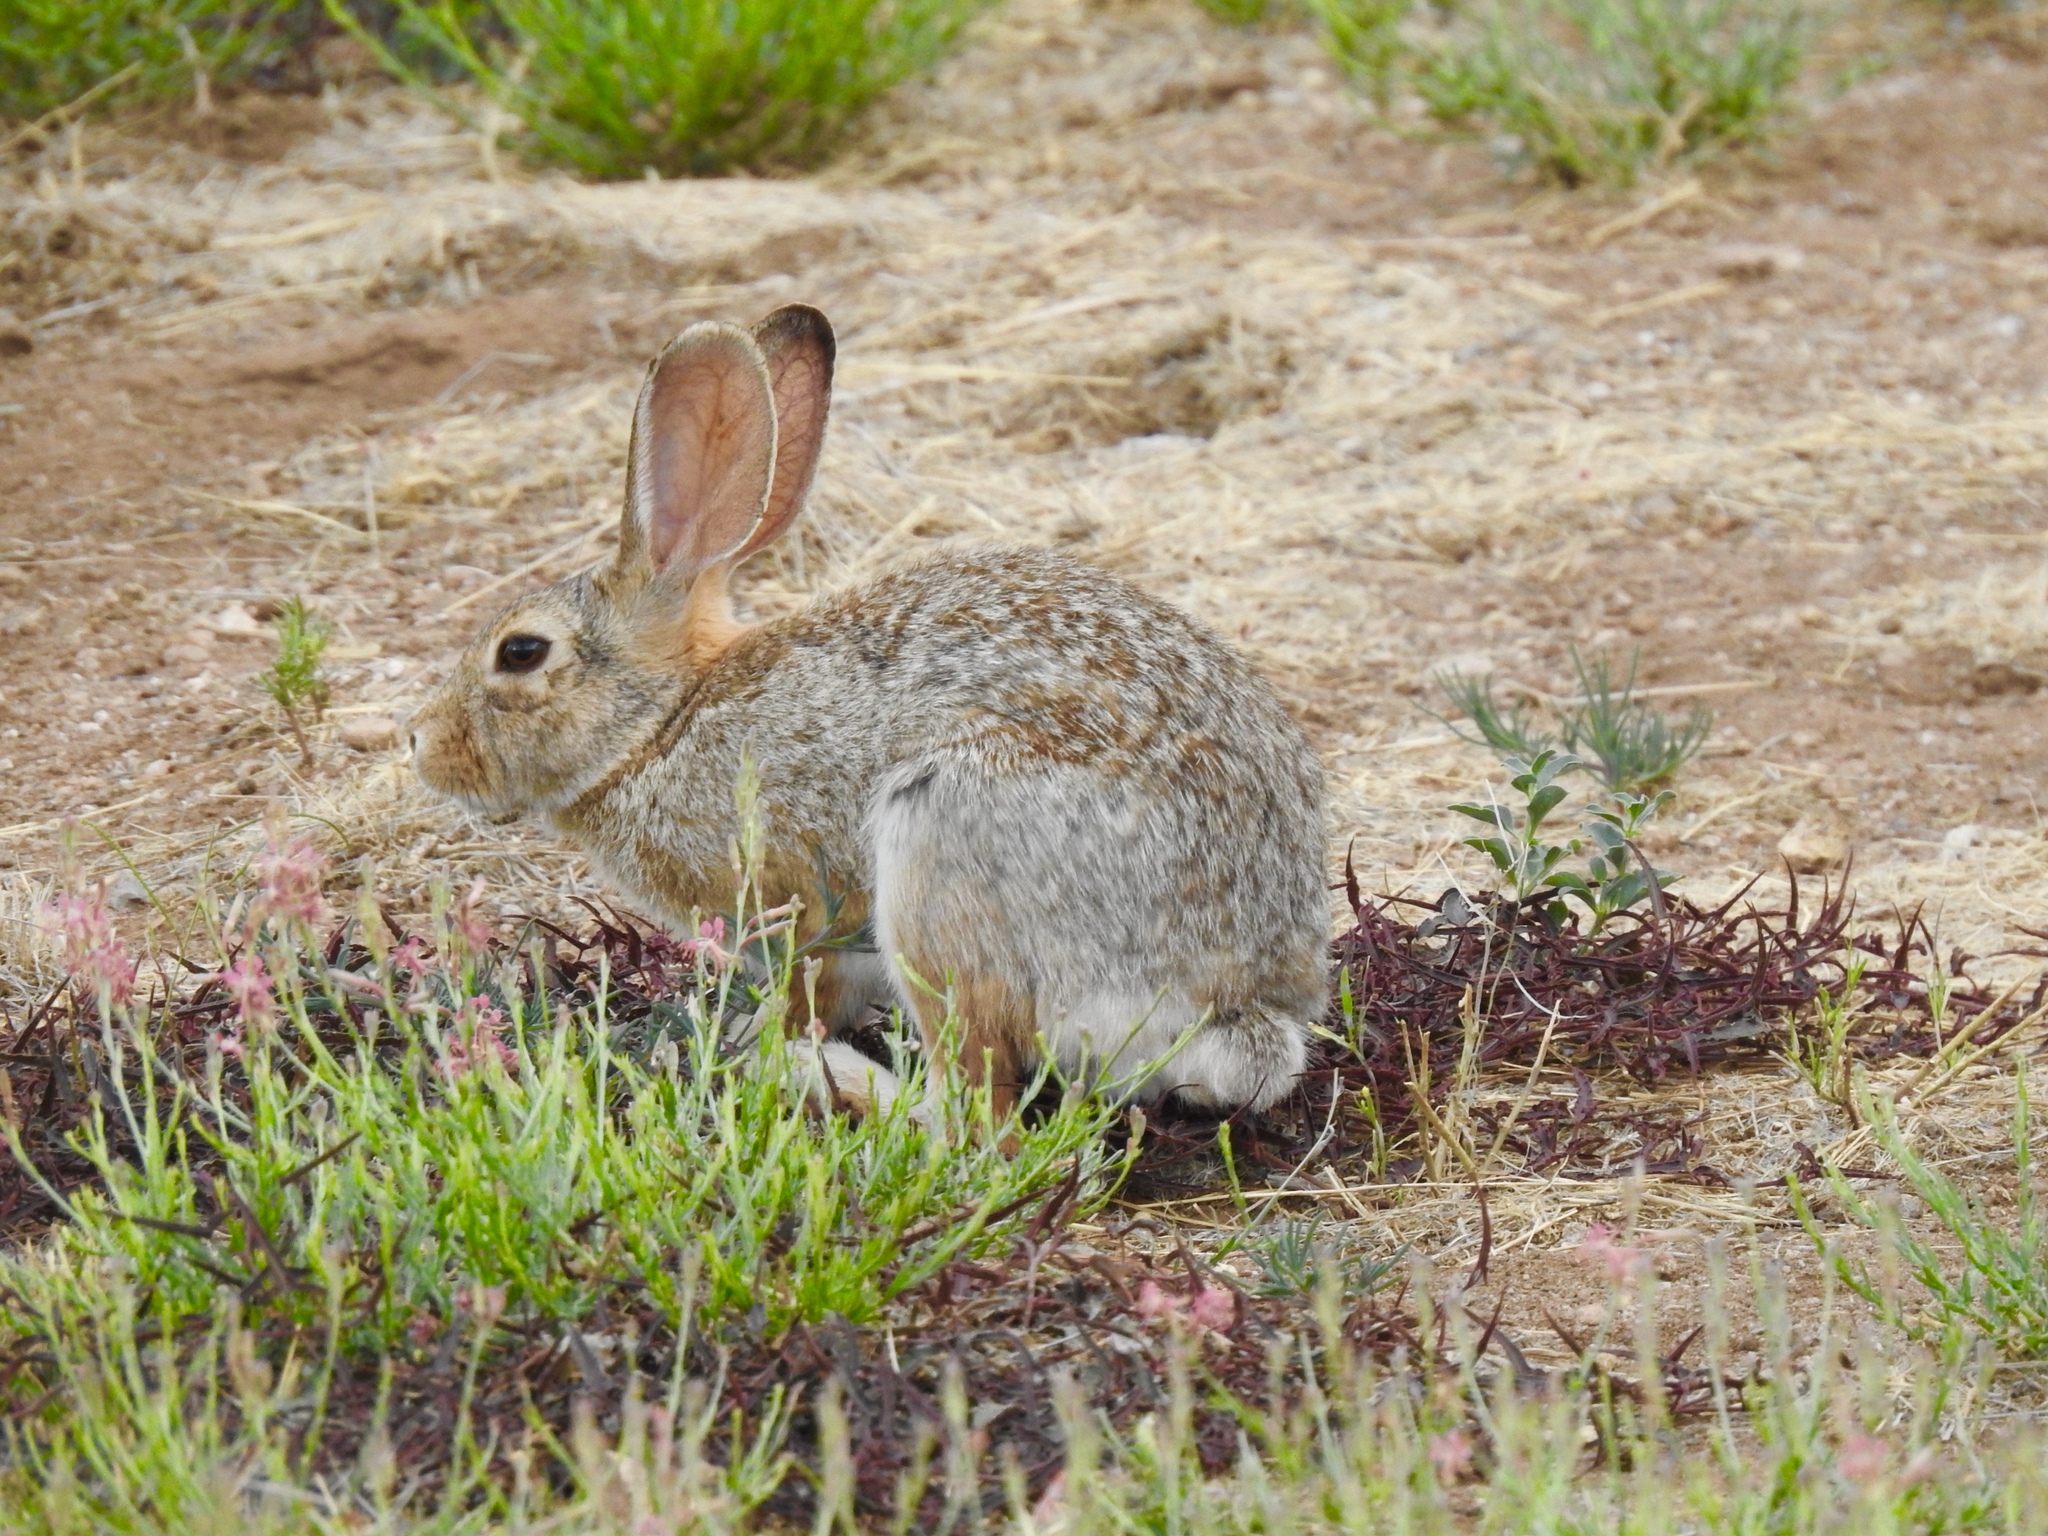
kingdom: Animalia
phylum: Chordata
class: Mammalia
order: Lagomorpha
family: Leporidae
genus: Sylvilagus
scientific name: Sylvilagus audubonii
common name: Desert cottontail
